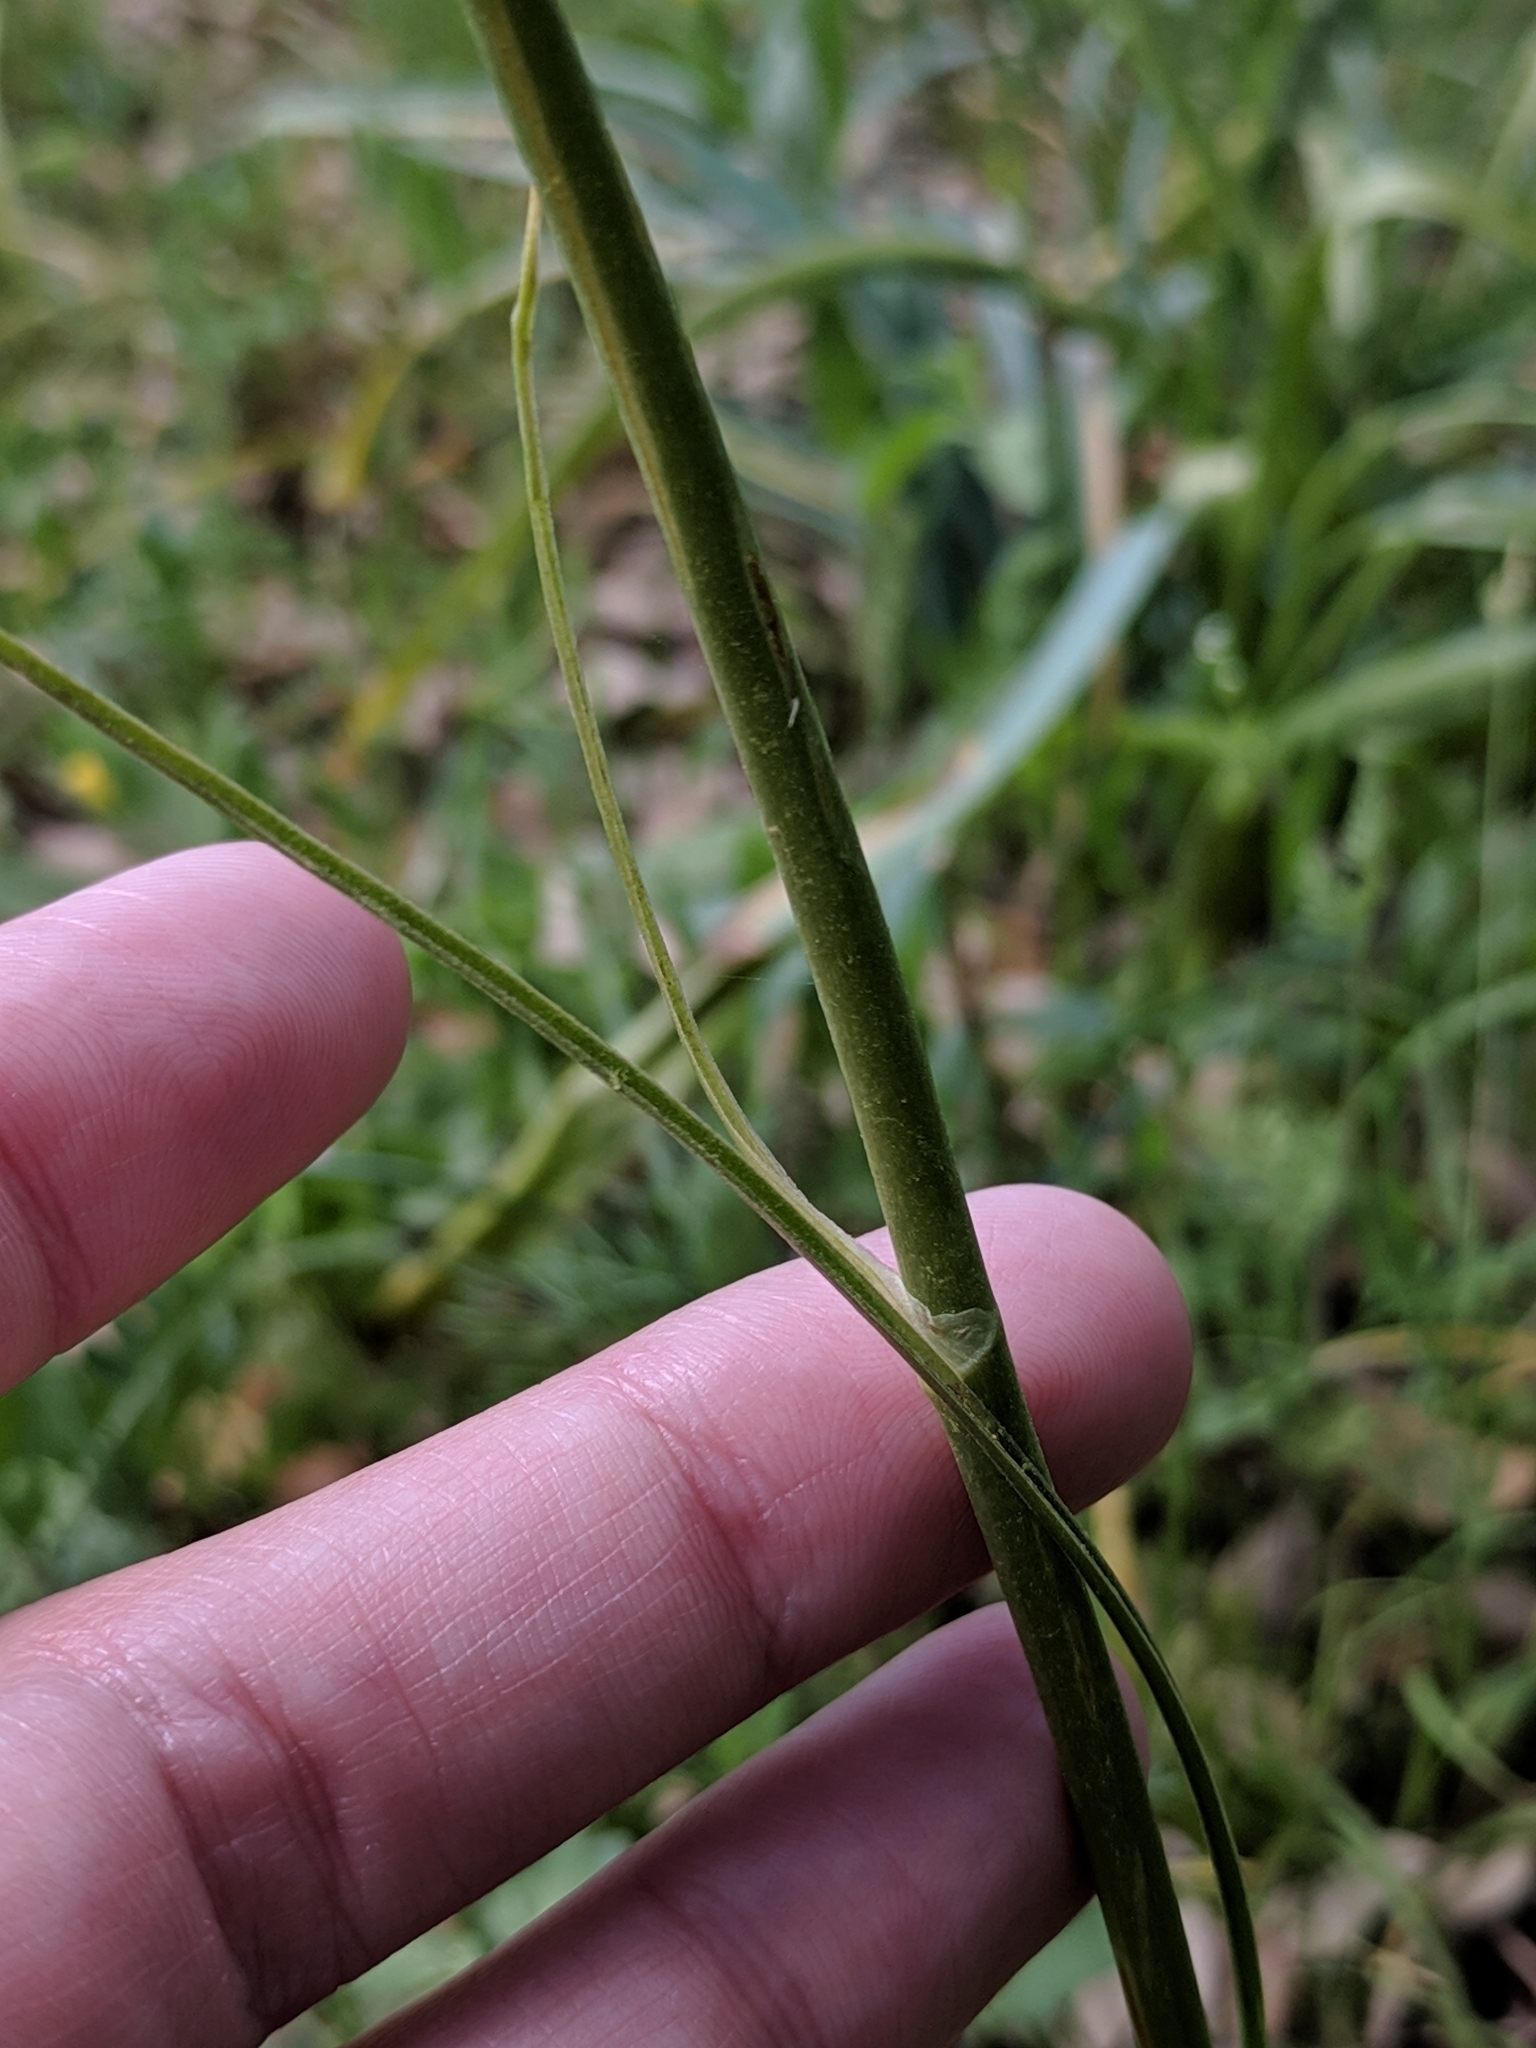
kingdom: Plantae
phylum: Tracheophyta
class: Liliopsida
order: Liliales
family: Melanthiaceae
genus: Toxicoscordion
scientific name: Toxicoscordion nuttallii
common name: Poison sego
